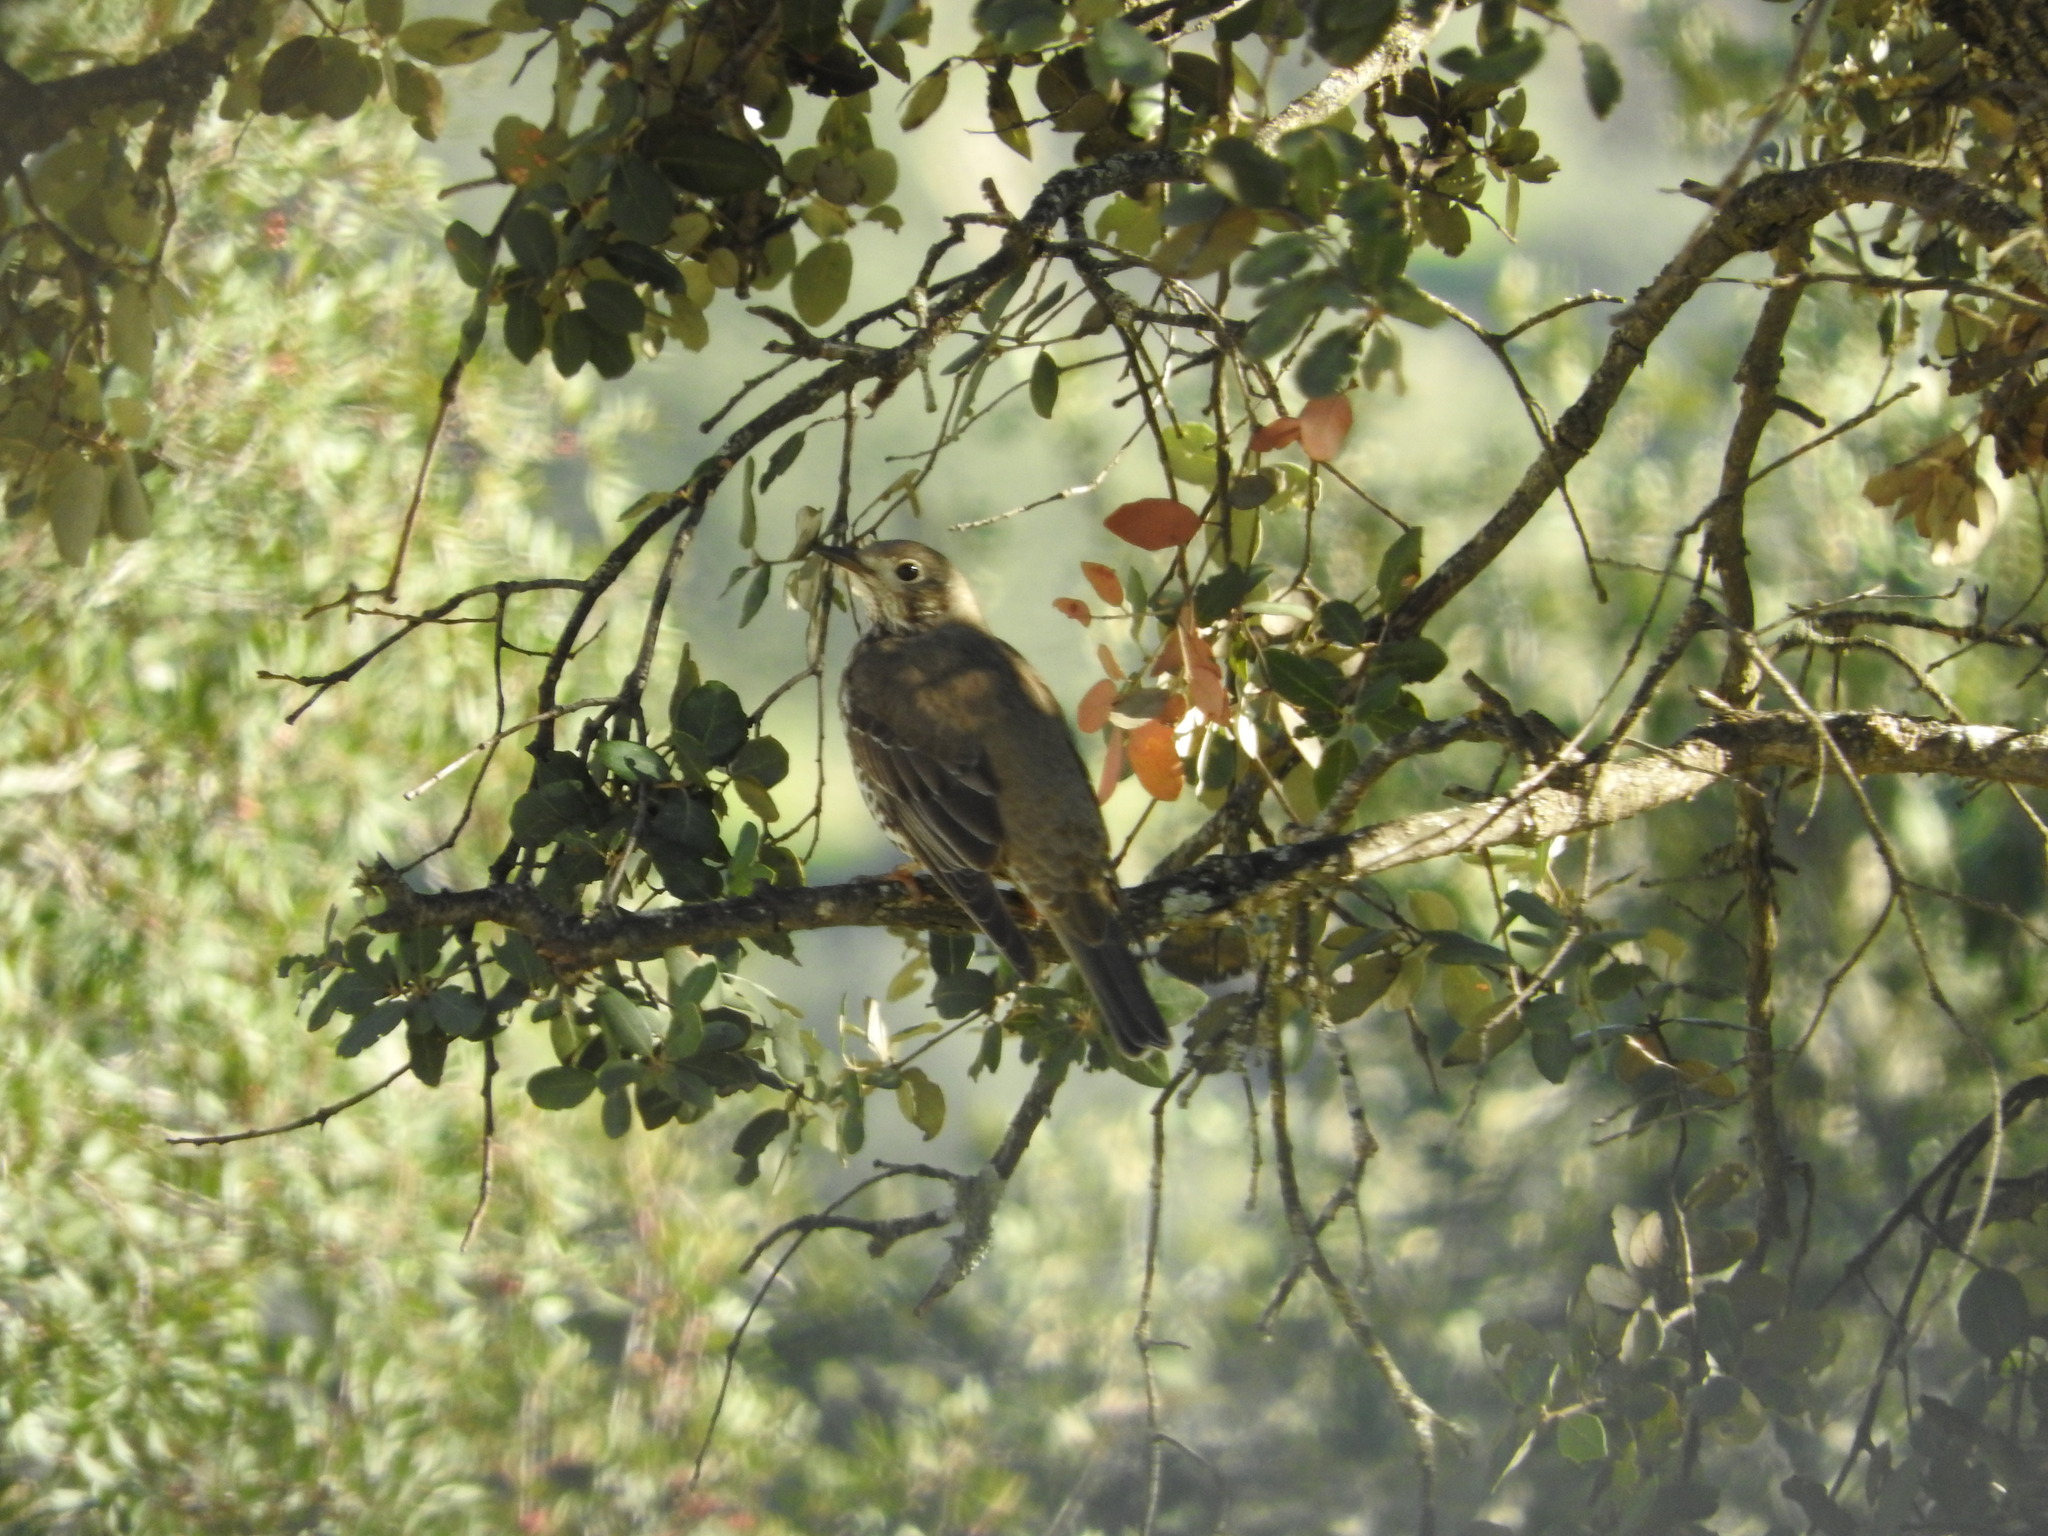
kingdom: Animalia
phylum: Chordata
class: Aves
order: Passeriformes
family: Turdidae
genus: Turdus
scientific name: Turdus viscivorus
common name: Mistle thrush
